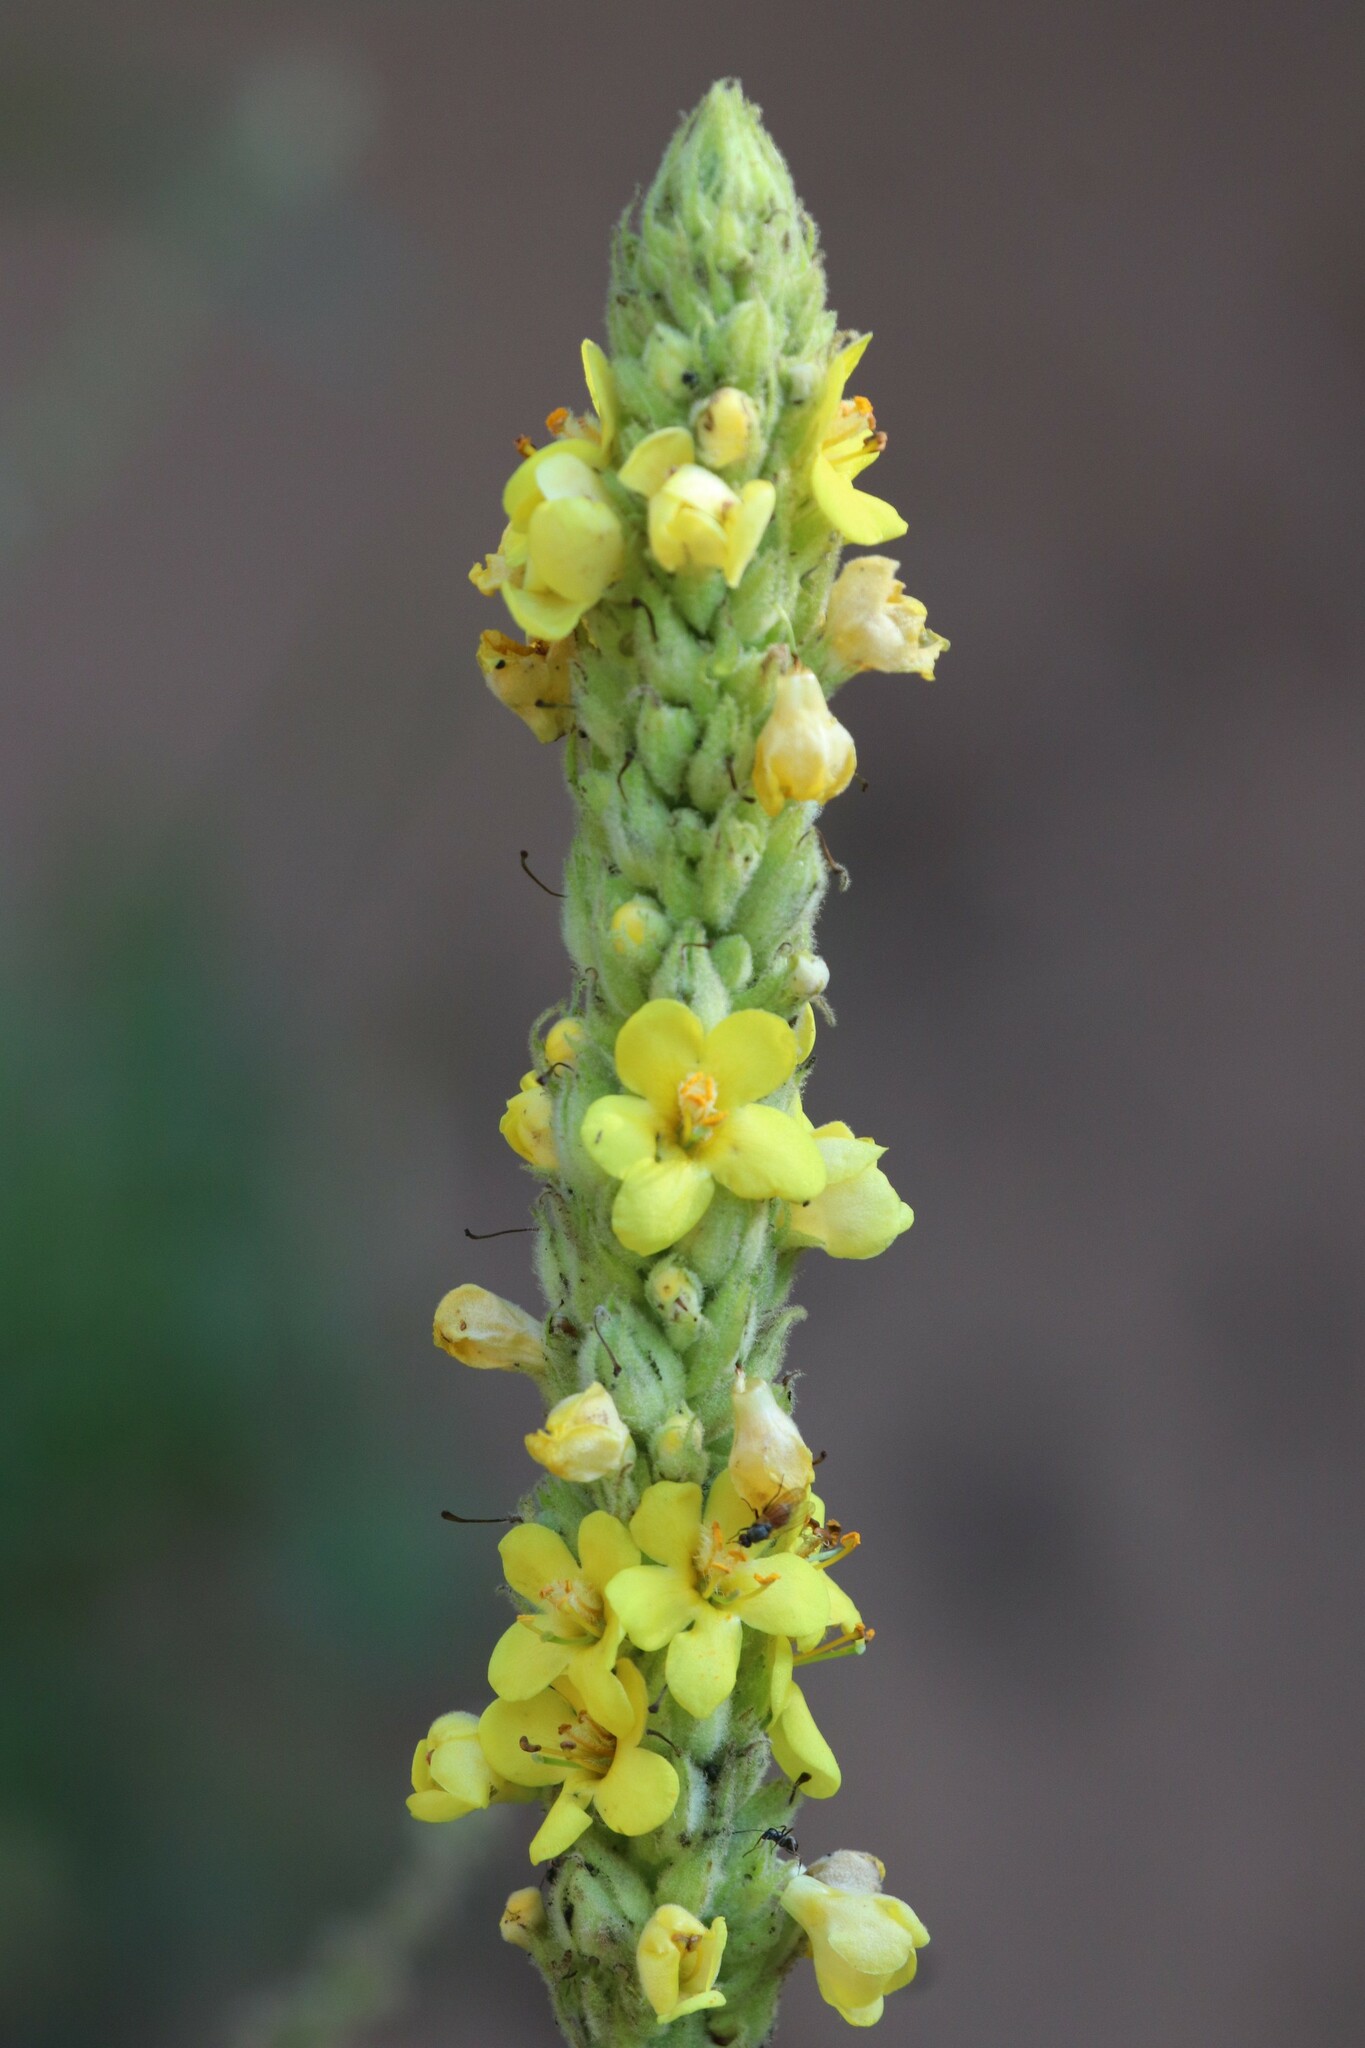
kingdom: Plantae
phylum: Tracheophyta
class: Magnoliopsida
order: Lamiales
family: Scrophulariaceae
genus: Verbascum
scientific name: Verbascum thapsus
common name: Common mullein
